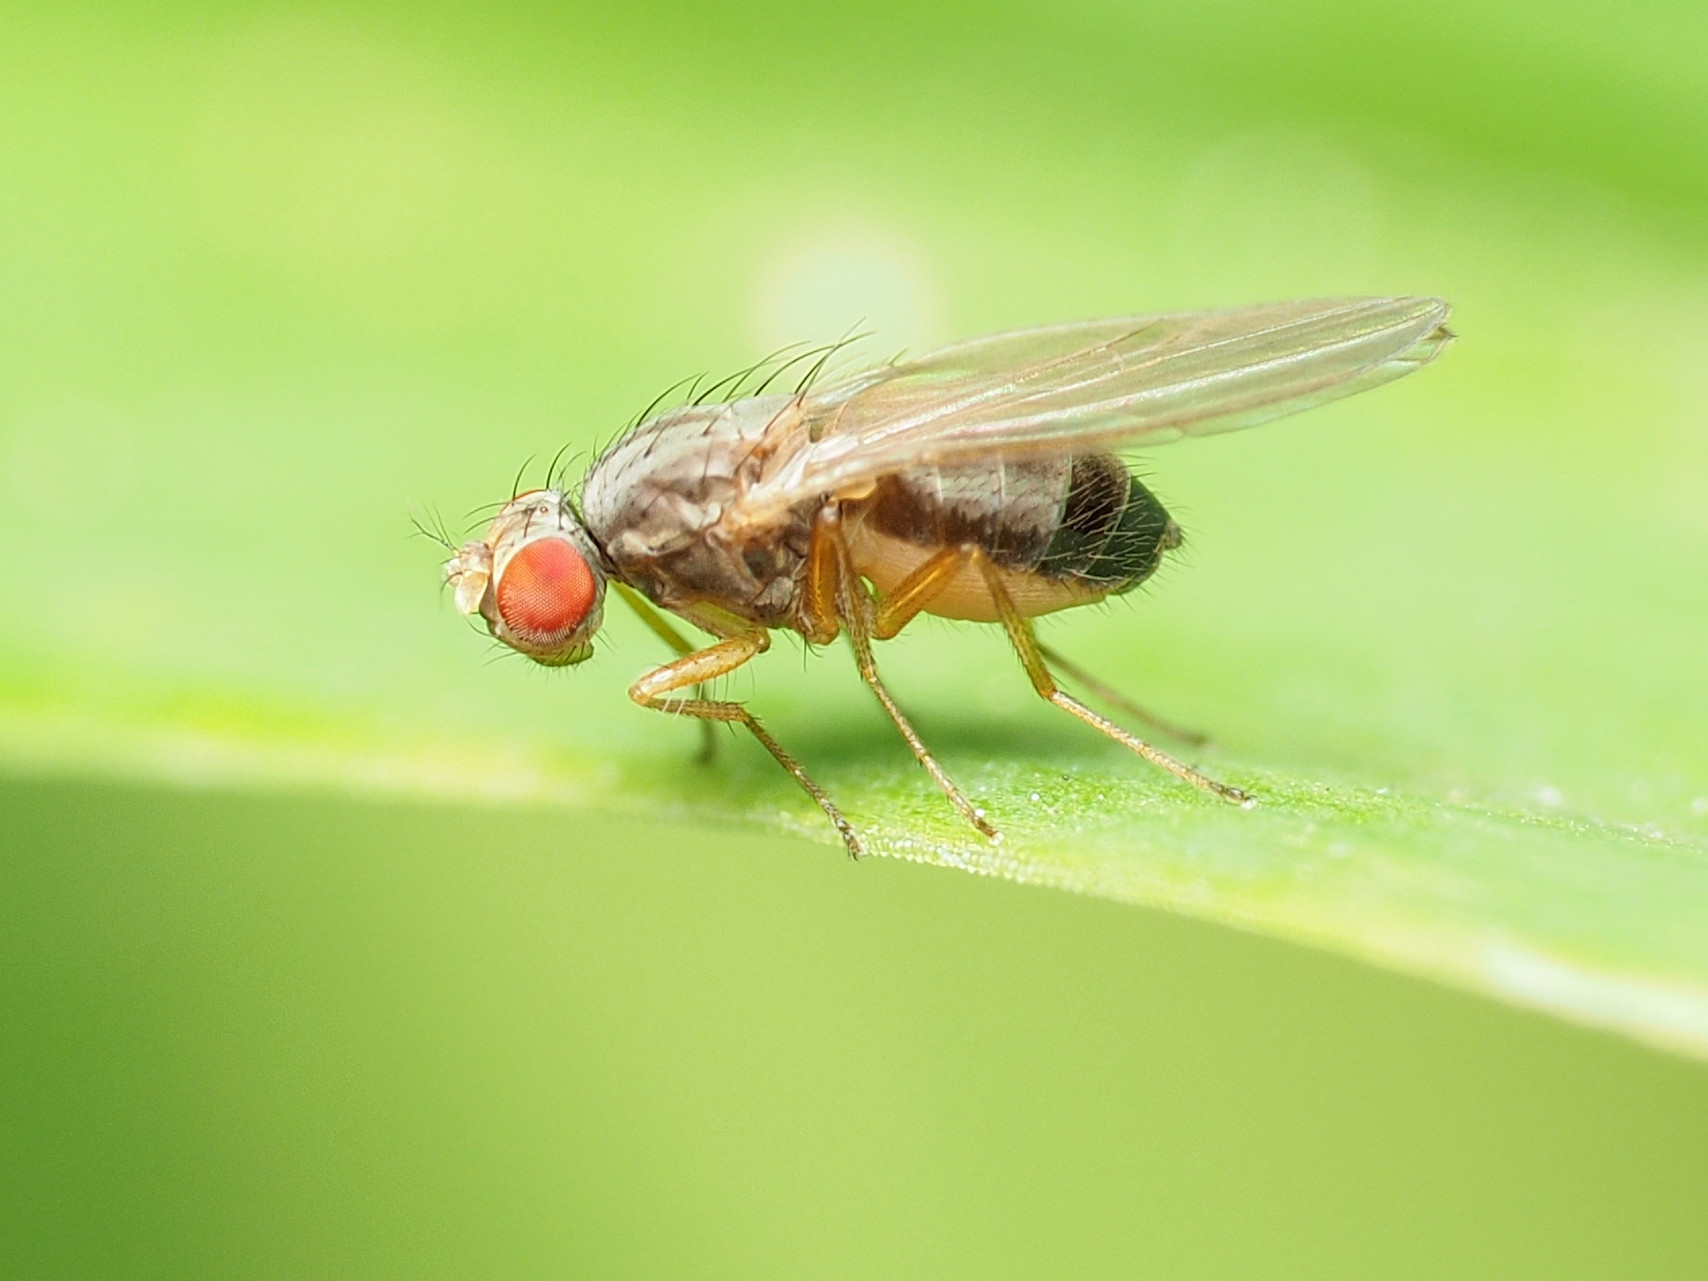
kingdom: Animalia
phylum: Arthropoda
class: Insecta
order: Diptera
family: Drosophilidae
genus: Scaptomyza
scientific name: Scaptomyza pallida
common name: Pomace fly
